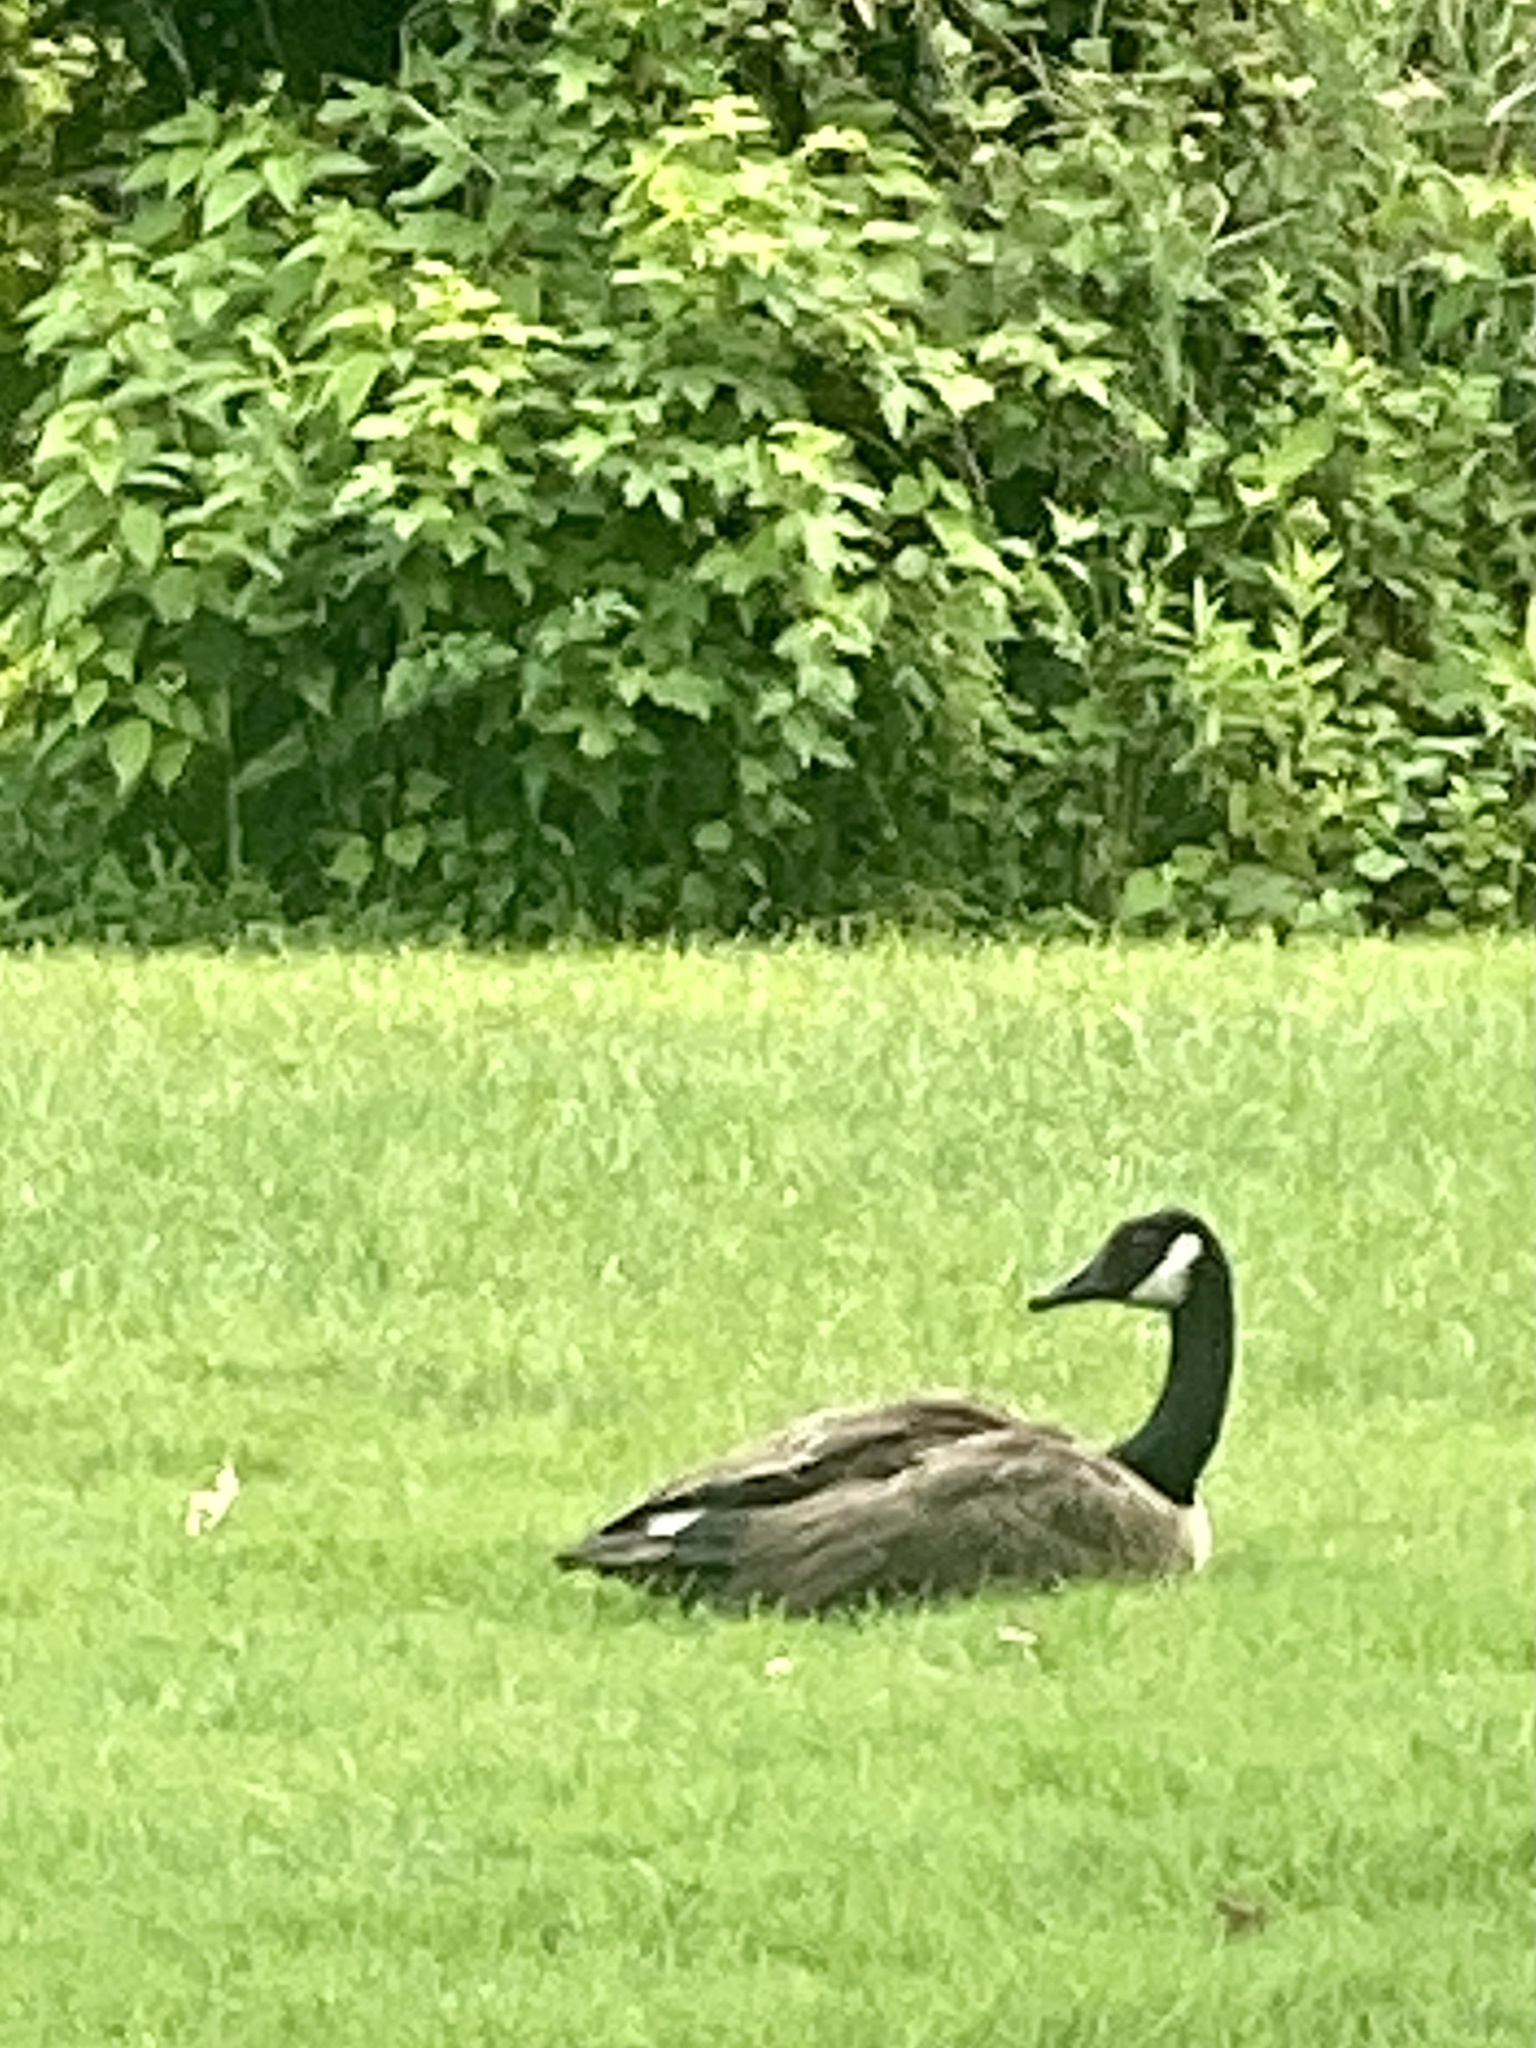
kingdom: Animalia
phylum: Chordata
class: Aves
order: Anseriformes
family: Anatidae
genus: Branta
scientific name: Branta canadensis
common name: Canada goose
